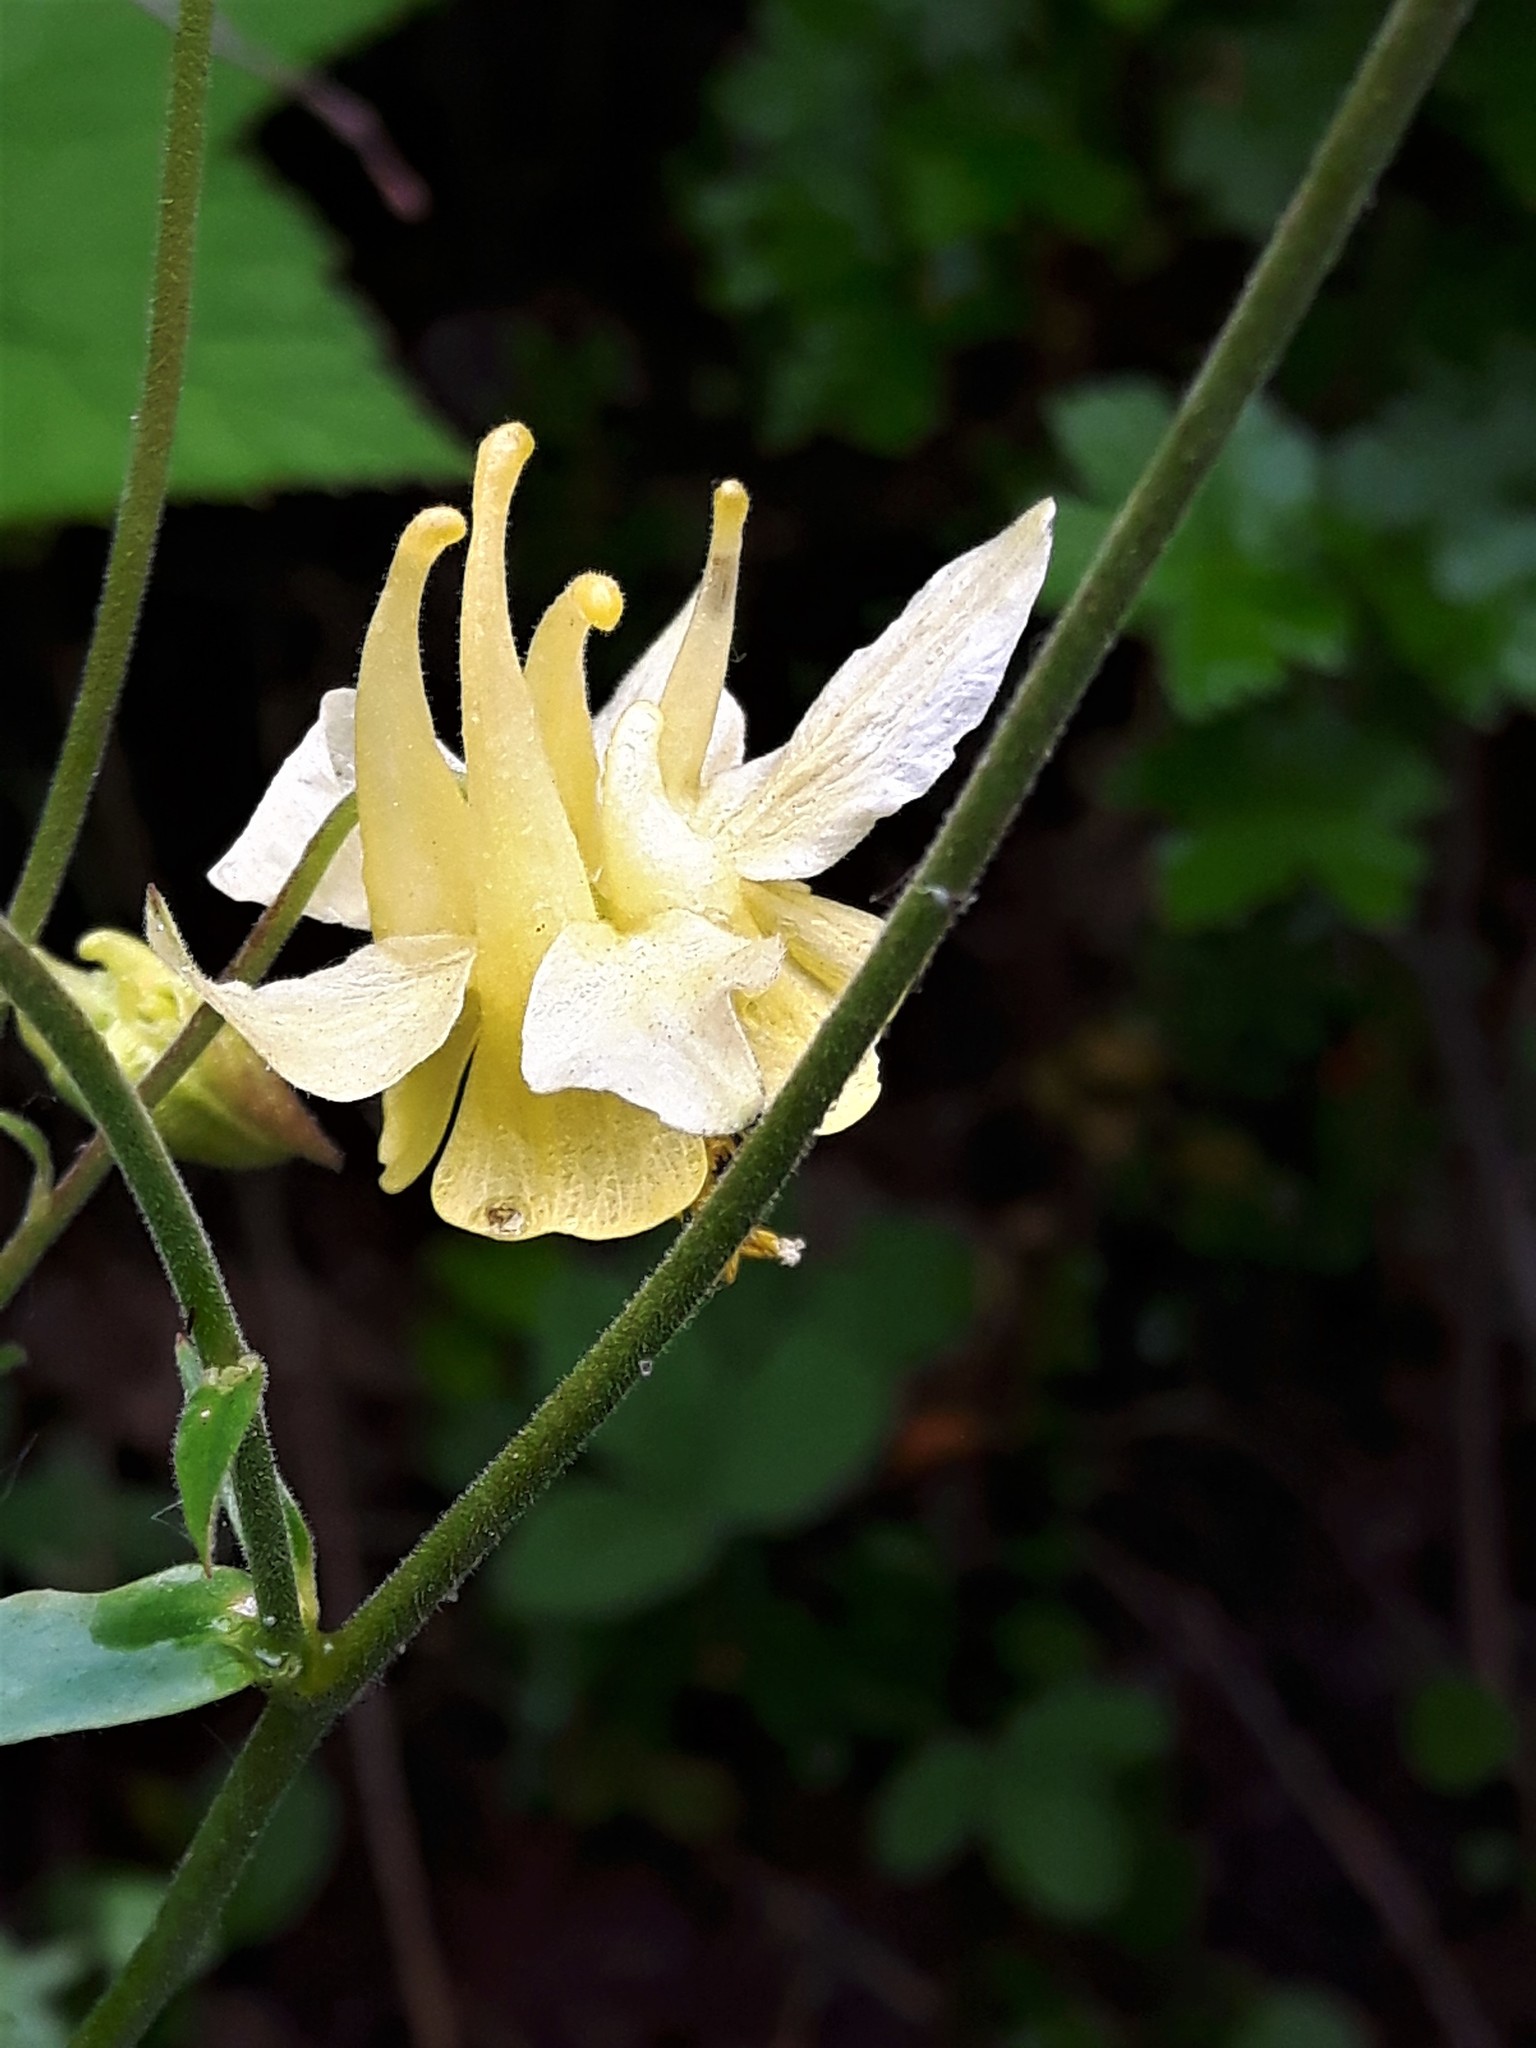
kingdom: Plantae
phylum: Tracheophyta
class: Magnoliopsida
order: Ranunculales
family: Ranunculaceae
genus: Aquilegia
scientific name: Aquilegia flavescens
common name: Yellow columbine
